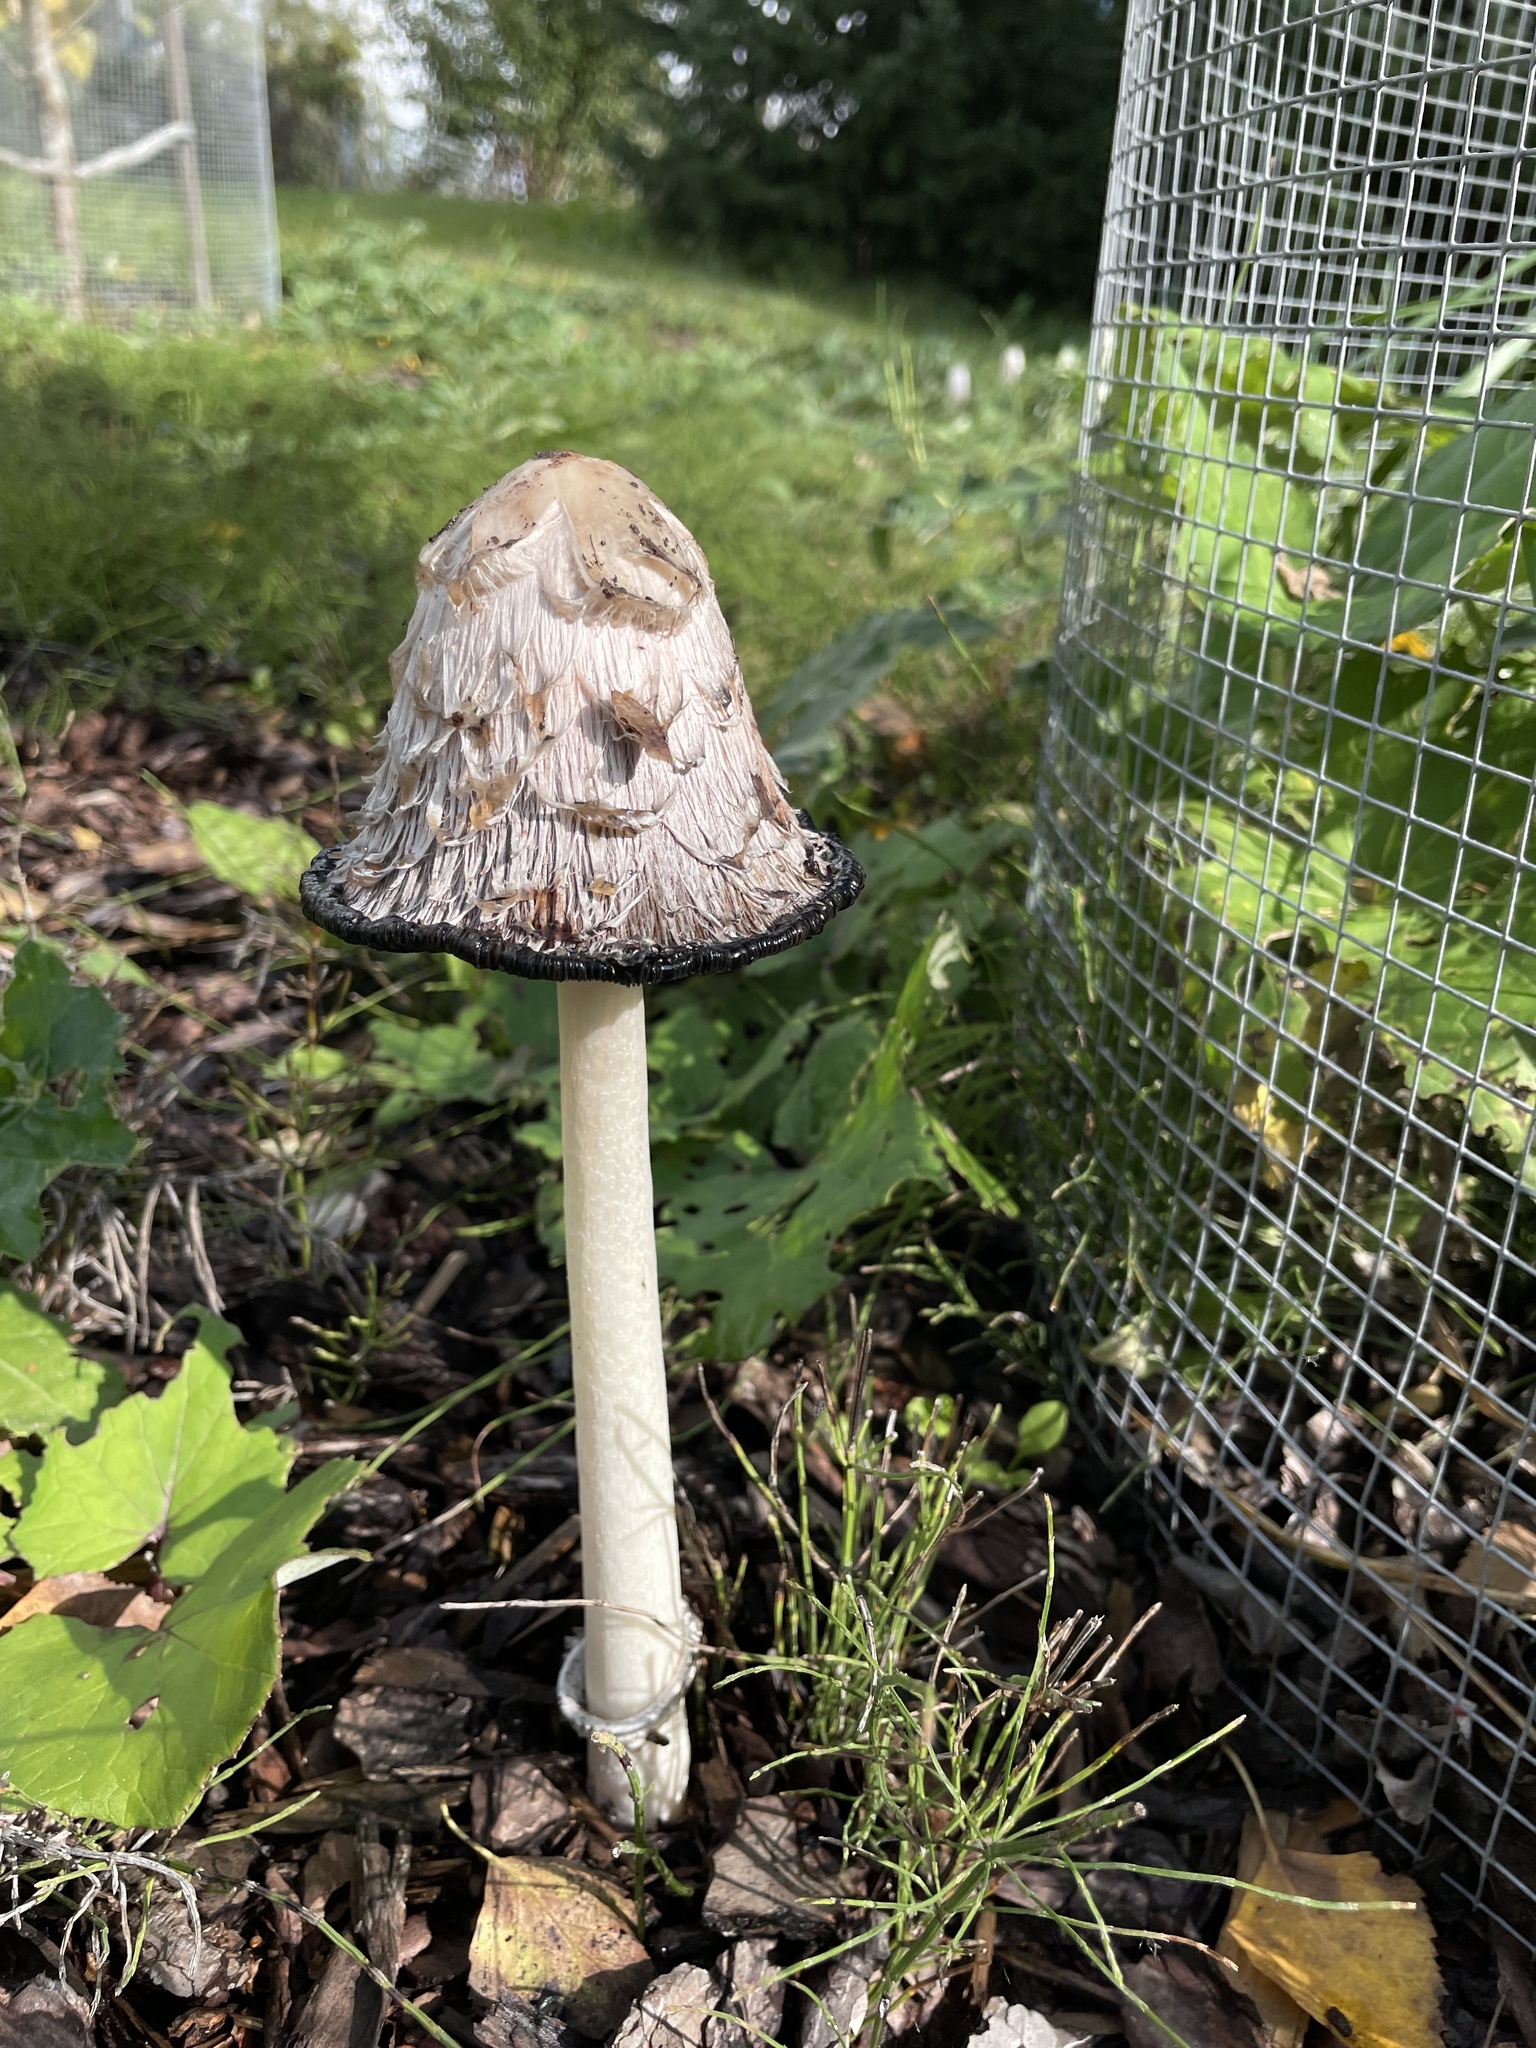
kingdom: Fungi
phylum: Basidiomycota
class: Agaricomycetes
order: Agaricales
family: Agaricaceae
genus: Coprinus
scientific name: Coprinus comatus
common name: Lawyer's wig
